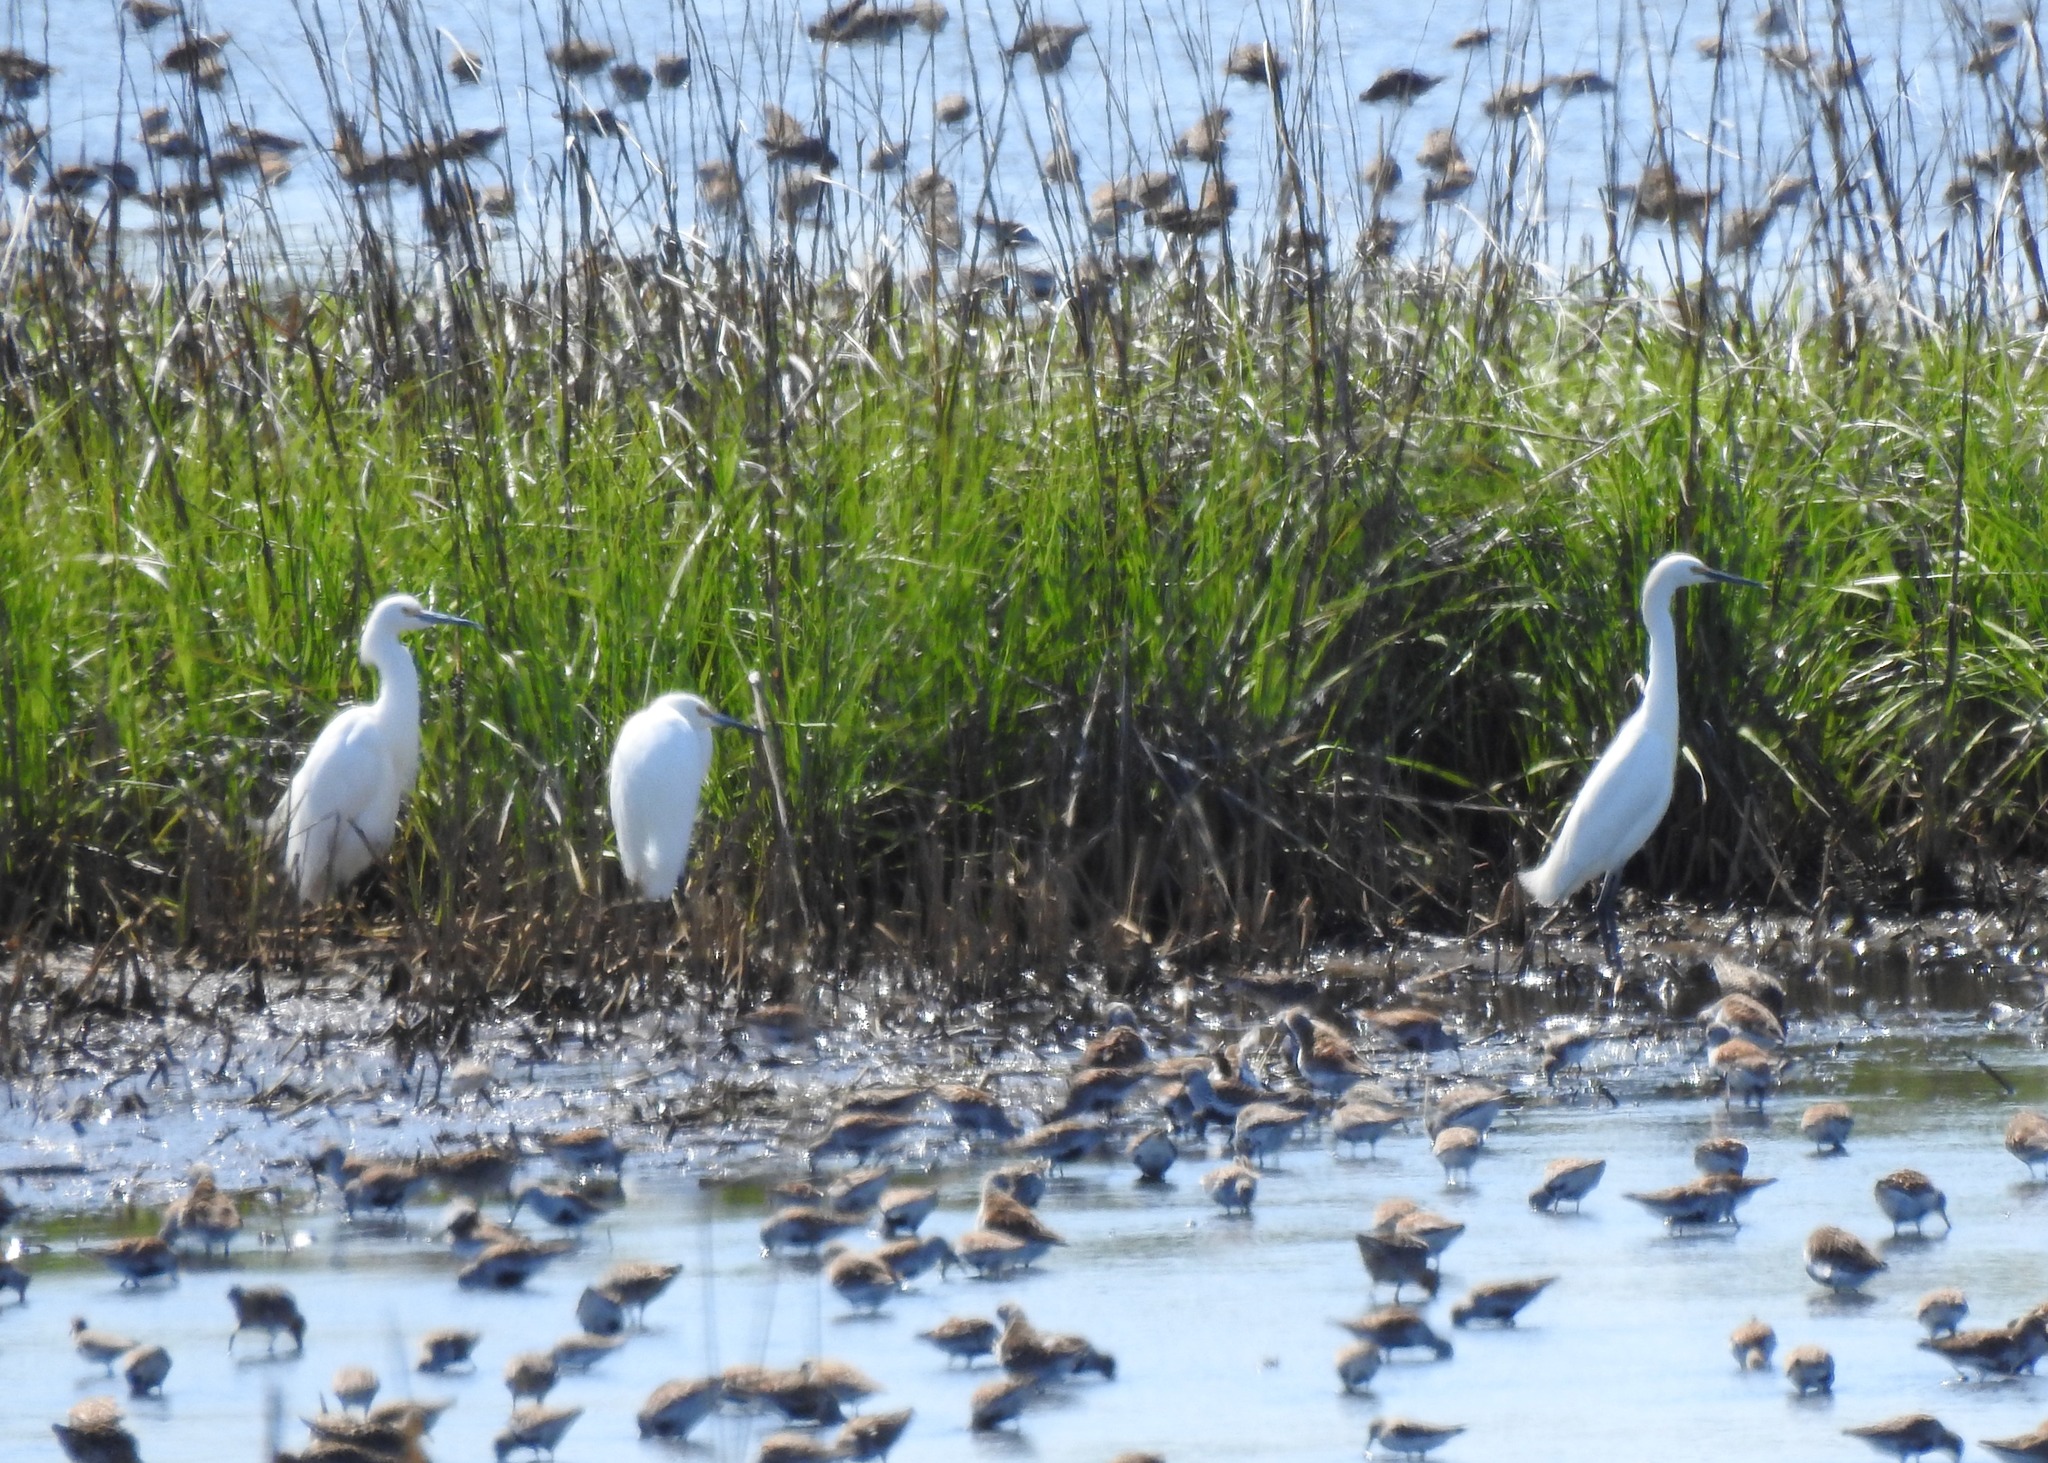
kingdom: Animalia
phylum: Chordata
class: Aves
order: Pelecaniformes
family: Ardeidae
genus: Egretta
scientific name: Egretta thula
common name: Snowy egret
